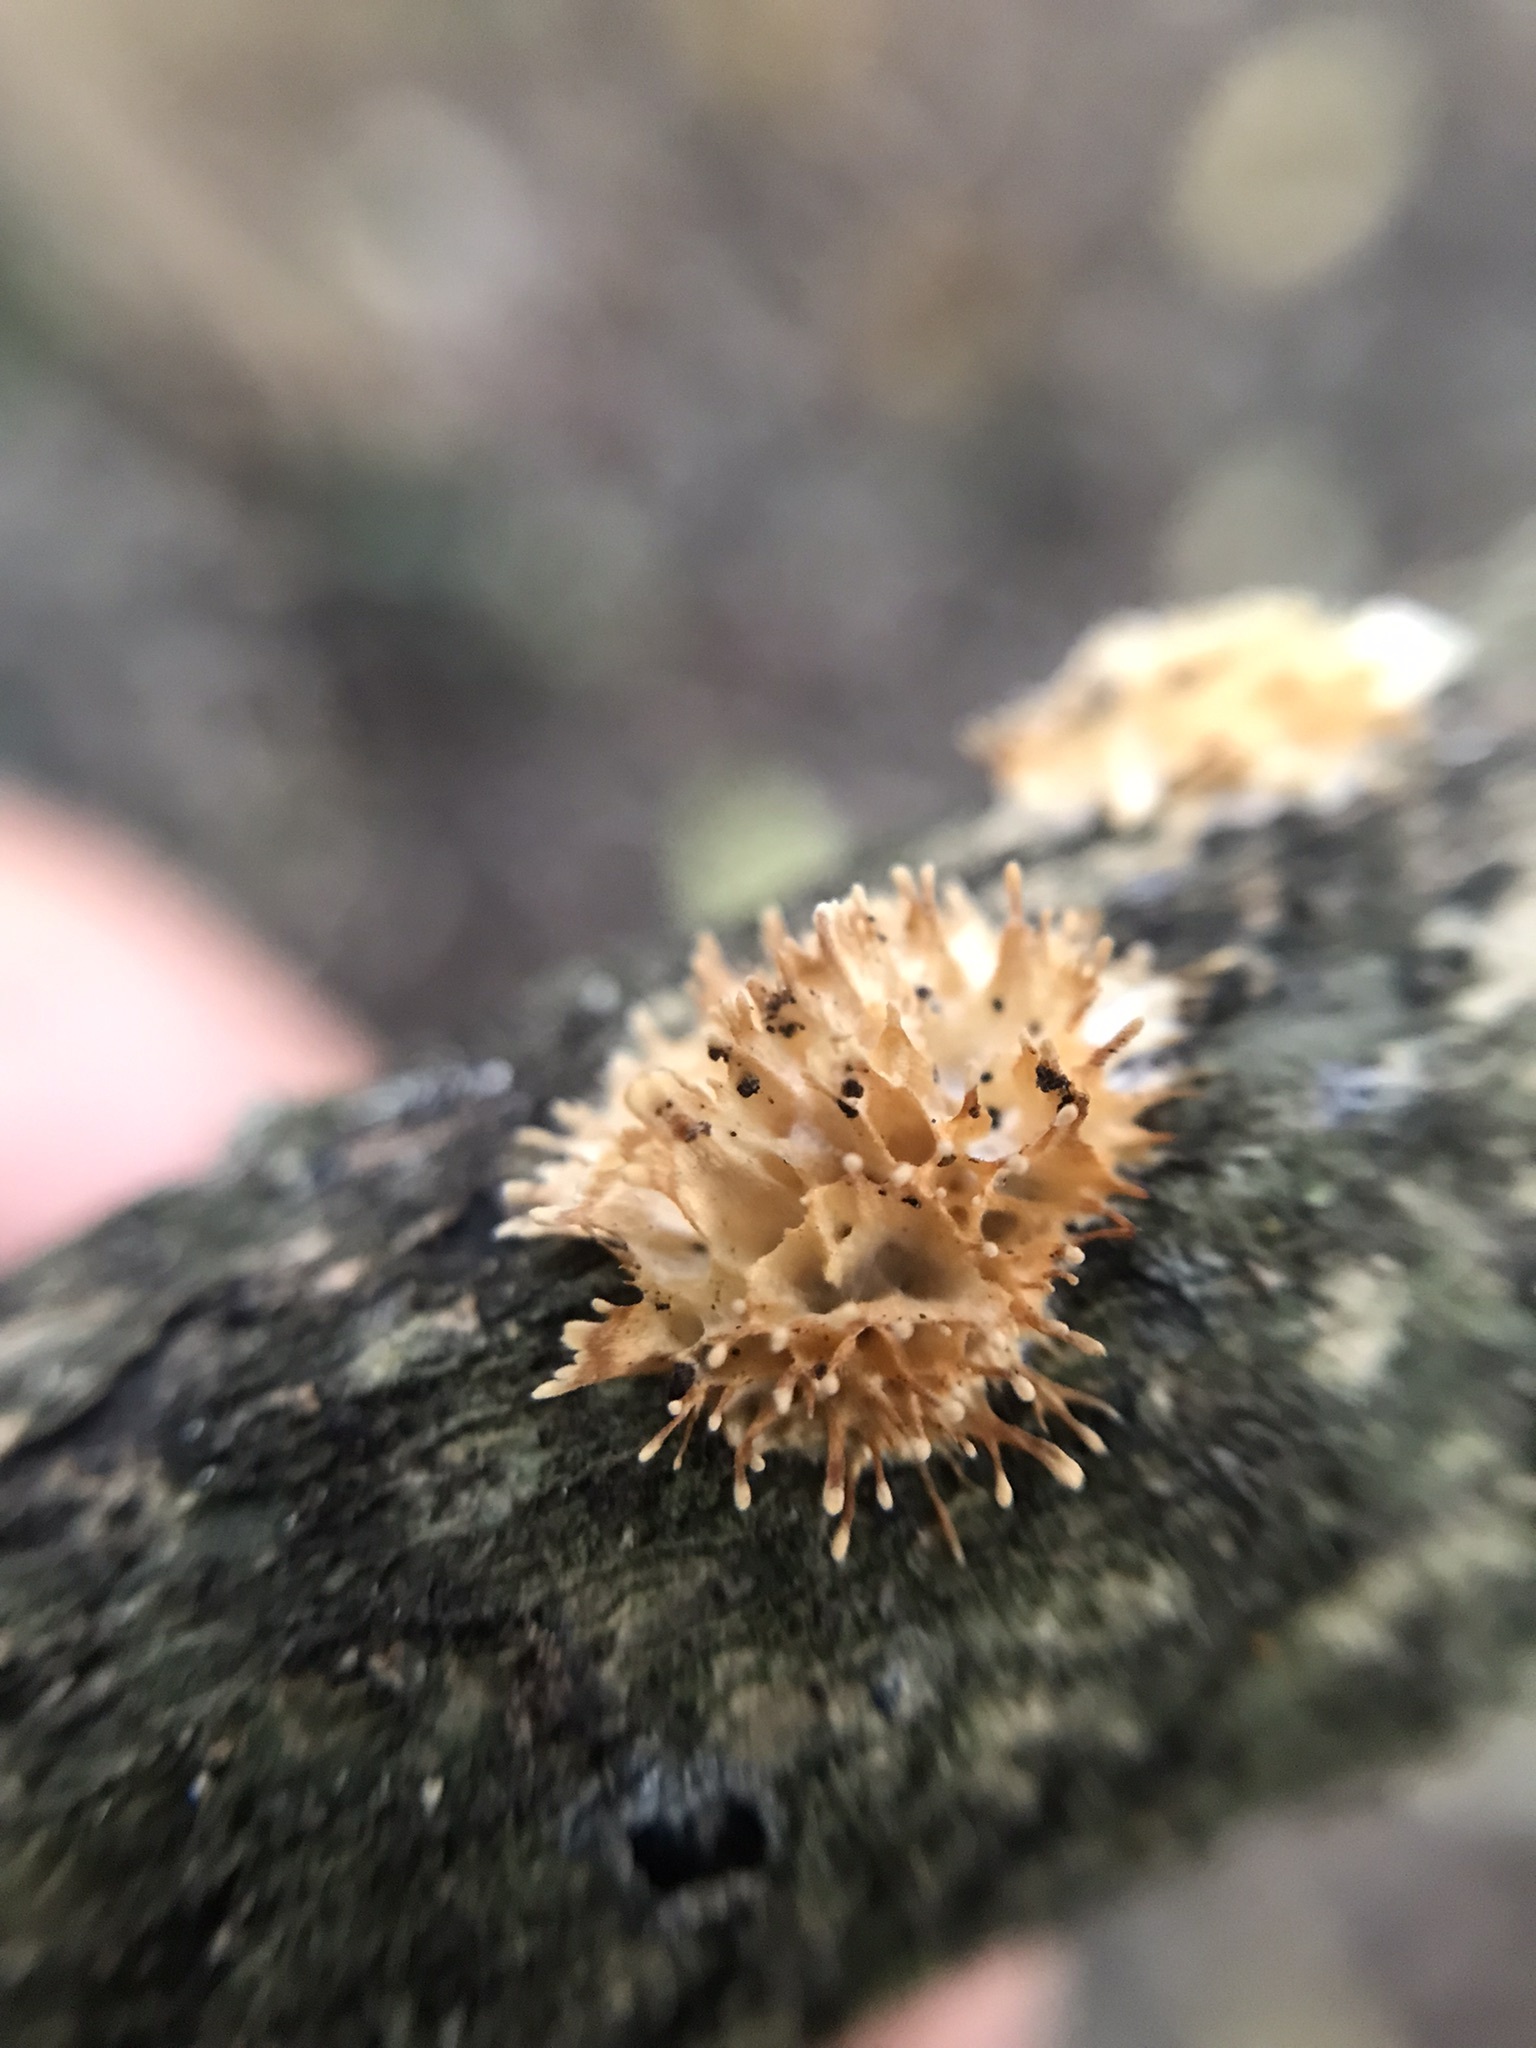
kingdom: Fungi
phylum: Basidiomycota
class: Agaricomycetes
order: Hymenochaetales
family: Schizoporaceae
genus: Echinoporia
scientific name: Echinoporia aculeifera
